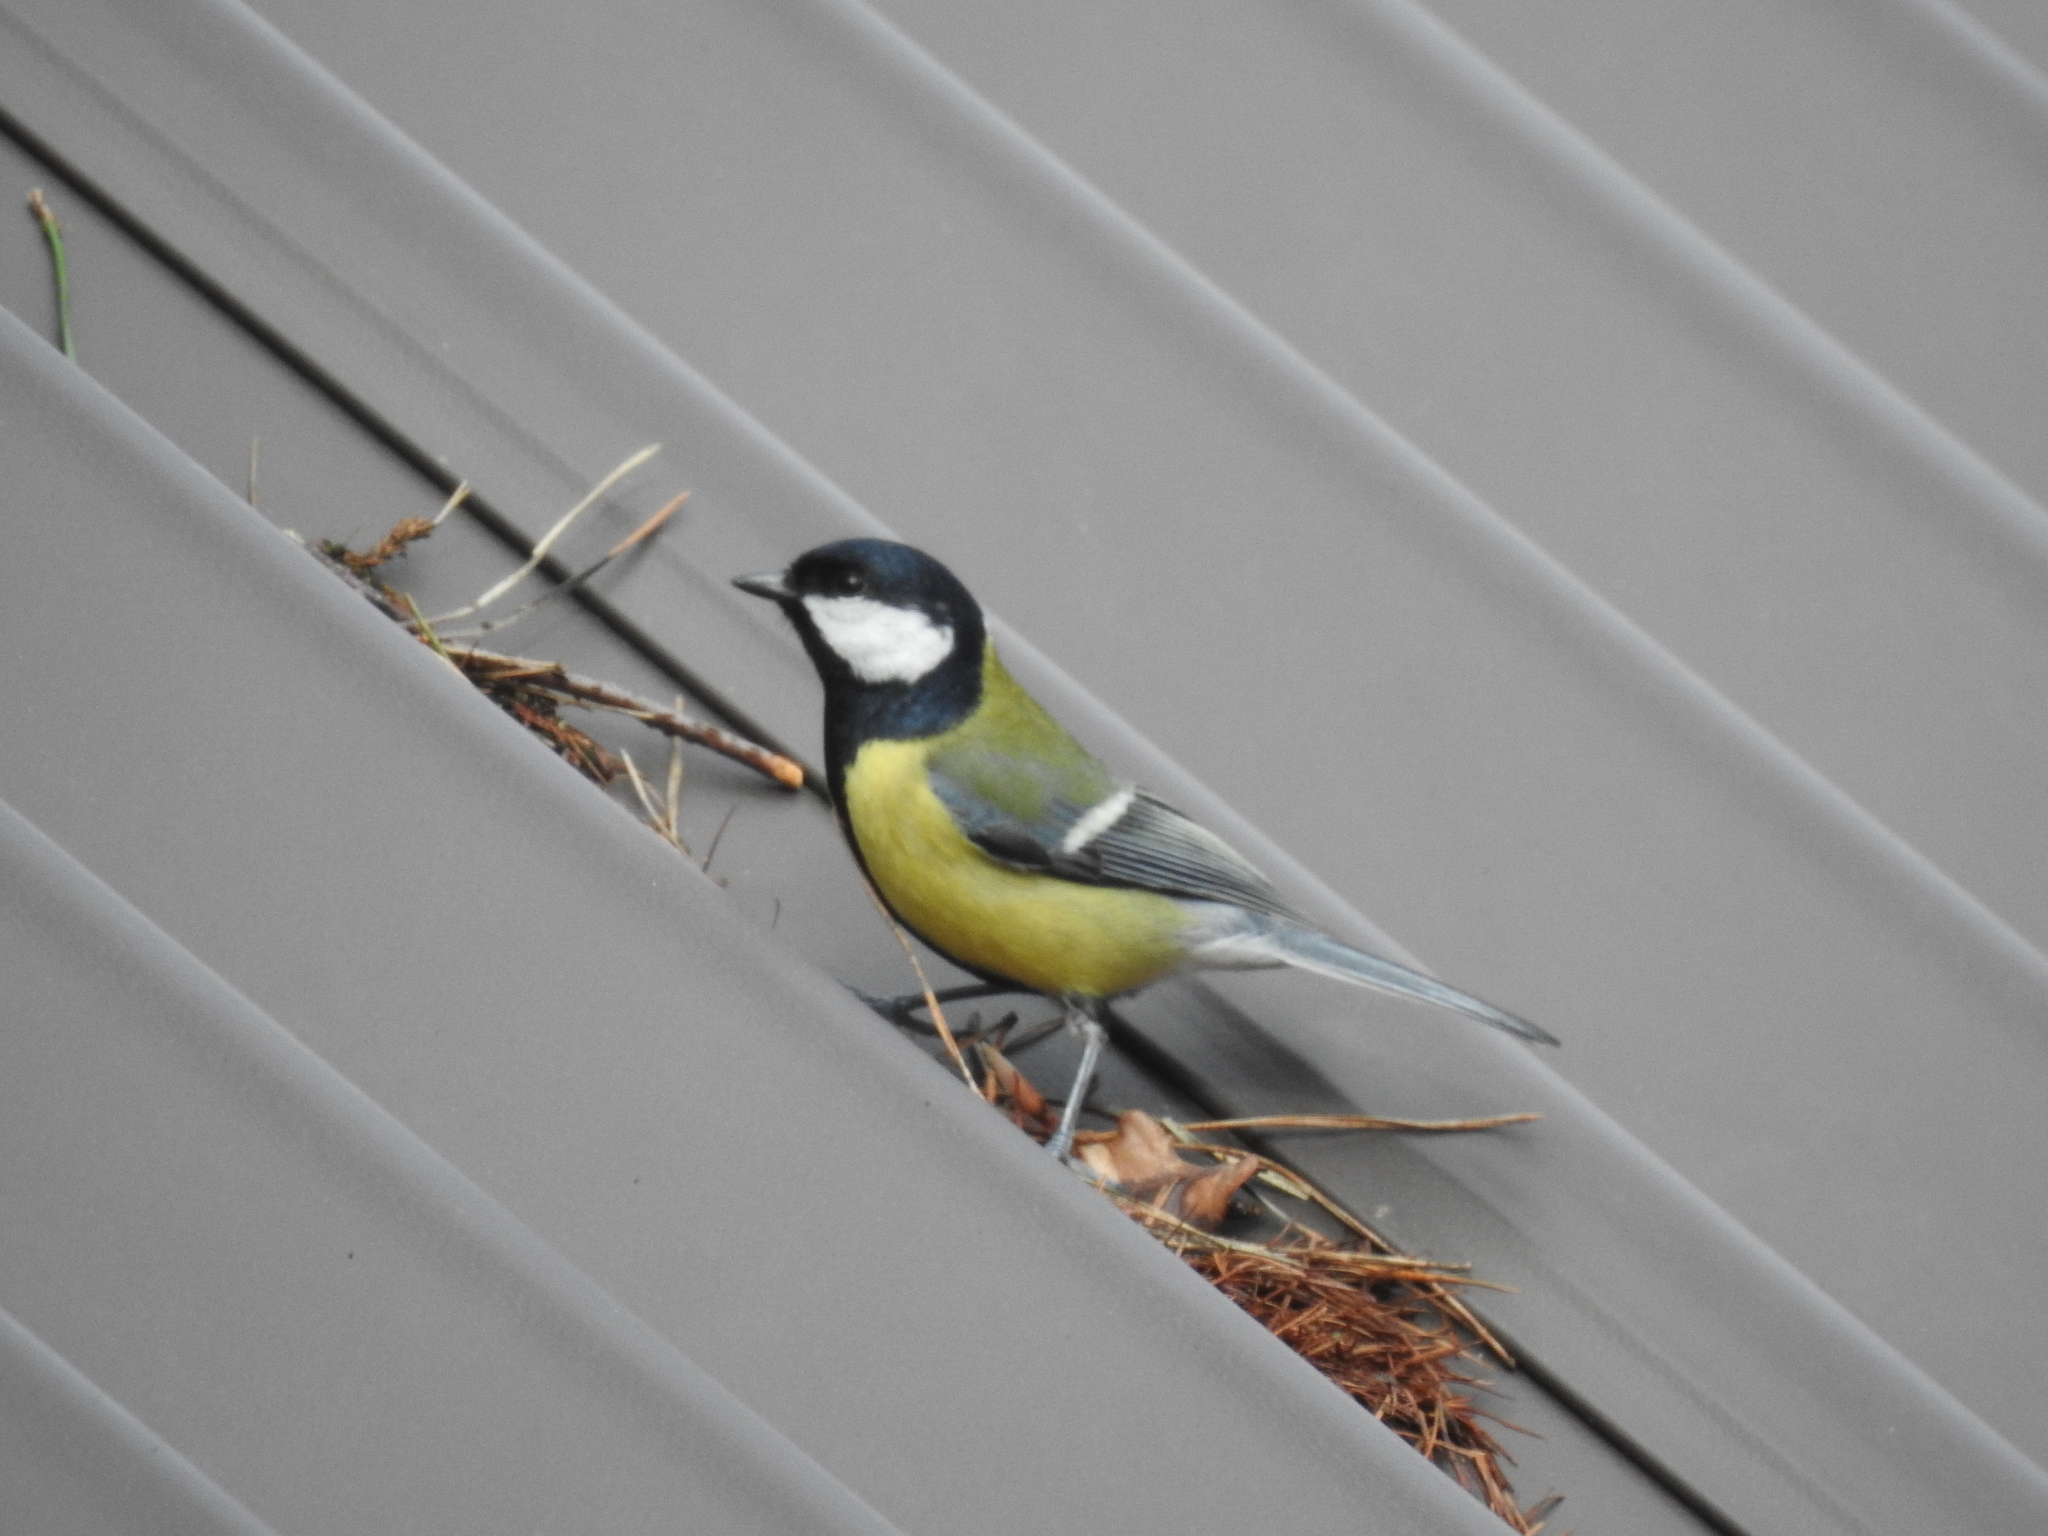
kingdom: Animalia
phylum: Chordata
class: Aves
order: Passeriformes
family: Paridae
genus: Parus
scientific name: Parus major
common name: Great tit
